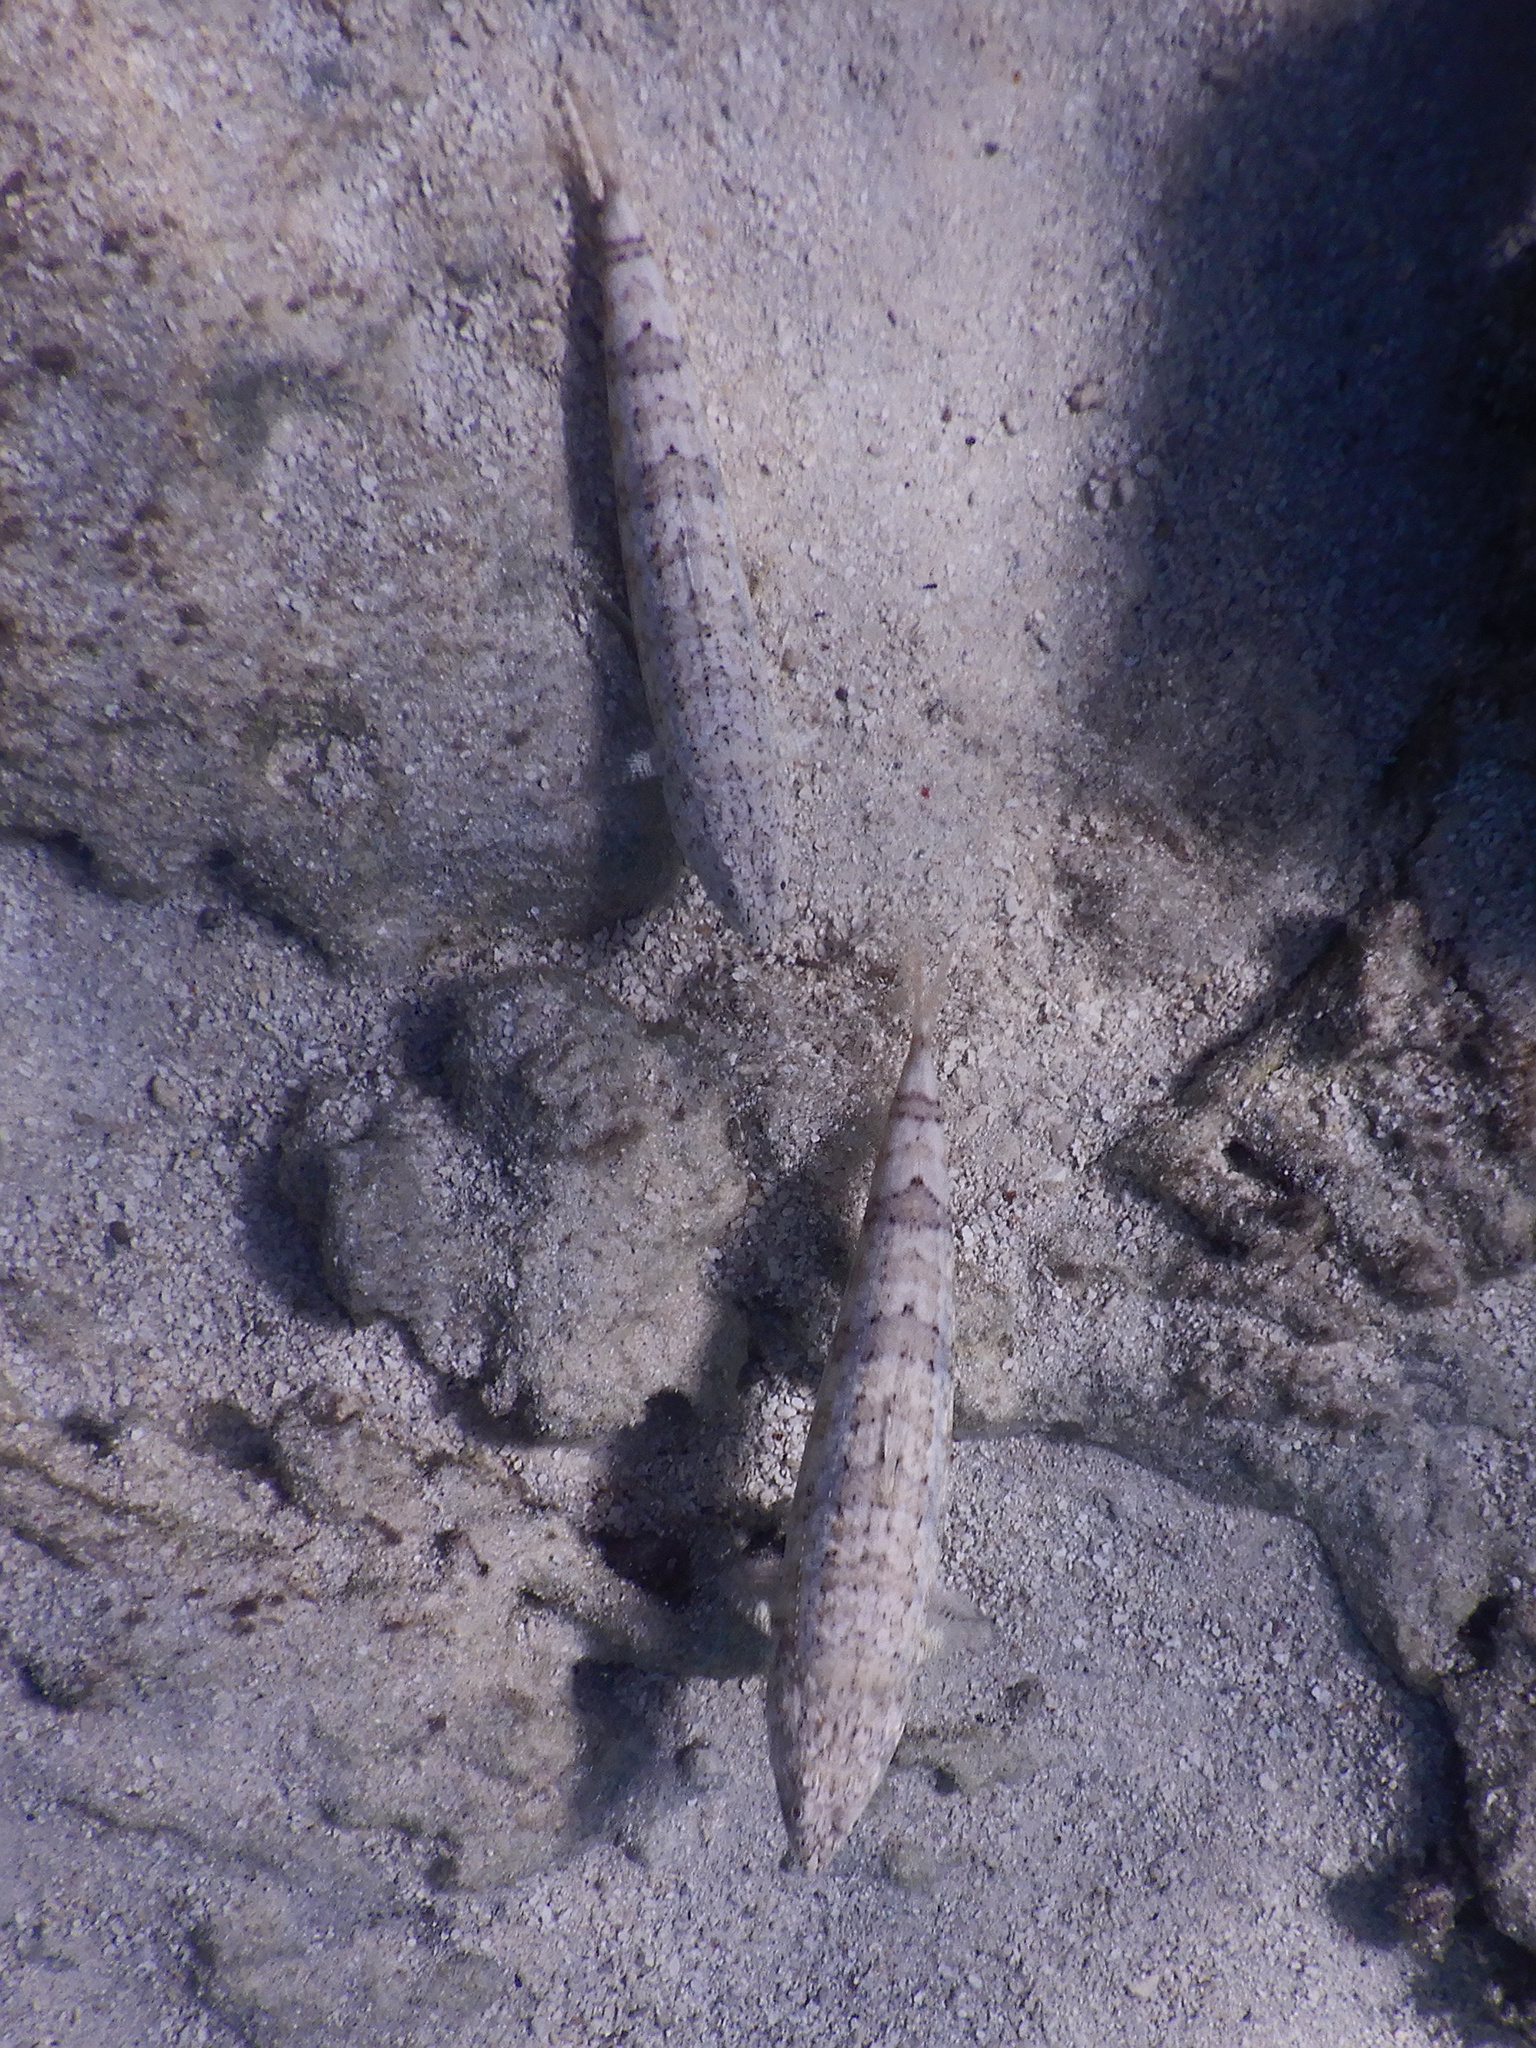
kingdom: Animalia
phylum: Chordata
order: Aulopiformes
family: Synodontidae
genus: Synodus
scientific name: Synodus dermatogenys
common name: Banded lizardfish
